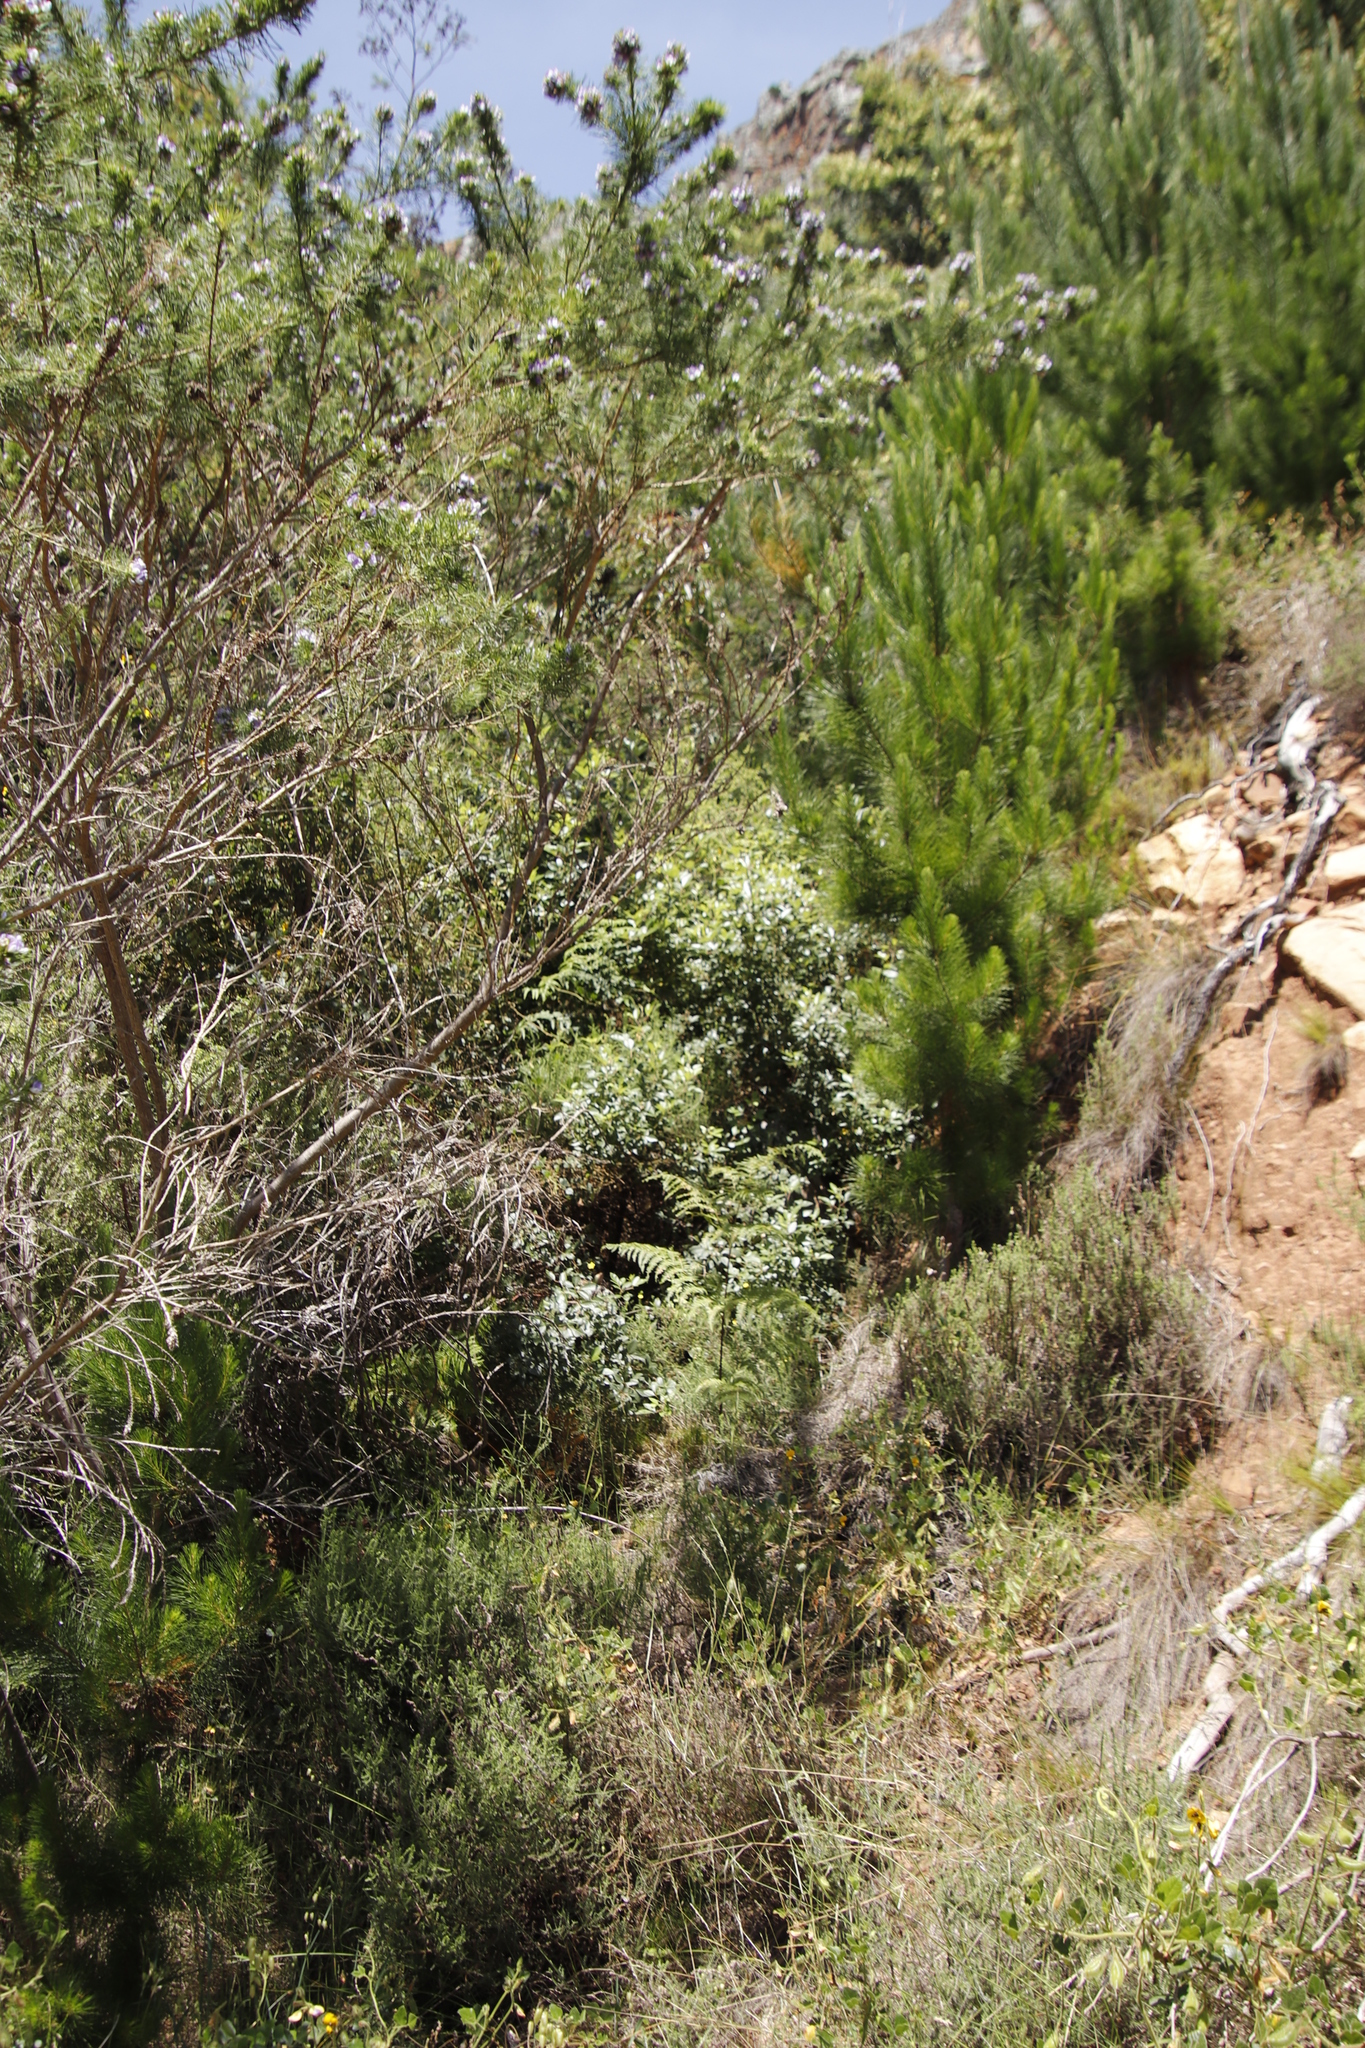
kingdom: Plantae
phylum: Tracheophyta
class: Magnoliopsida
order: Sapindales
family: Anacardiaceae
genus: Searsia
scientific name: Searsia tomentosa
